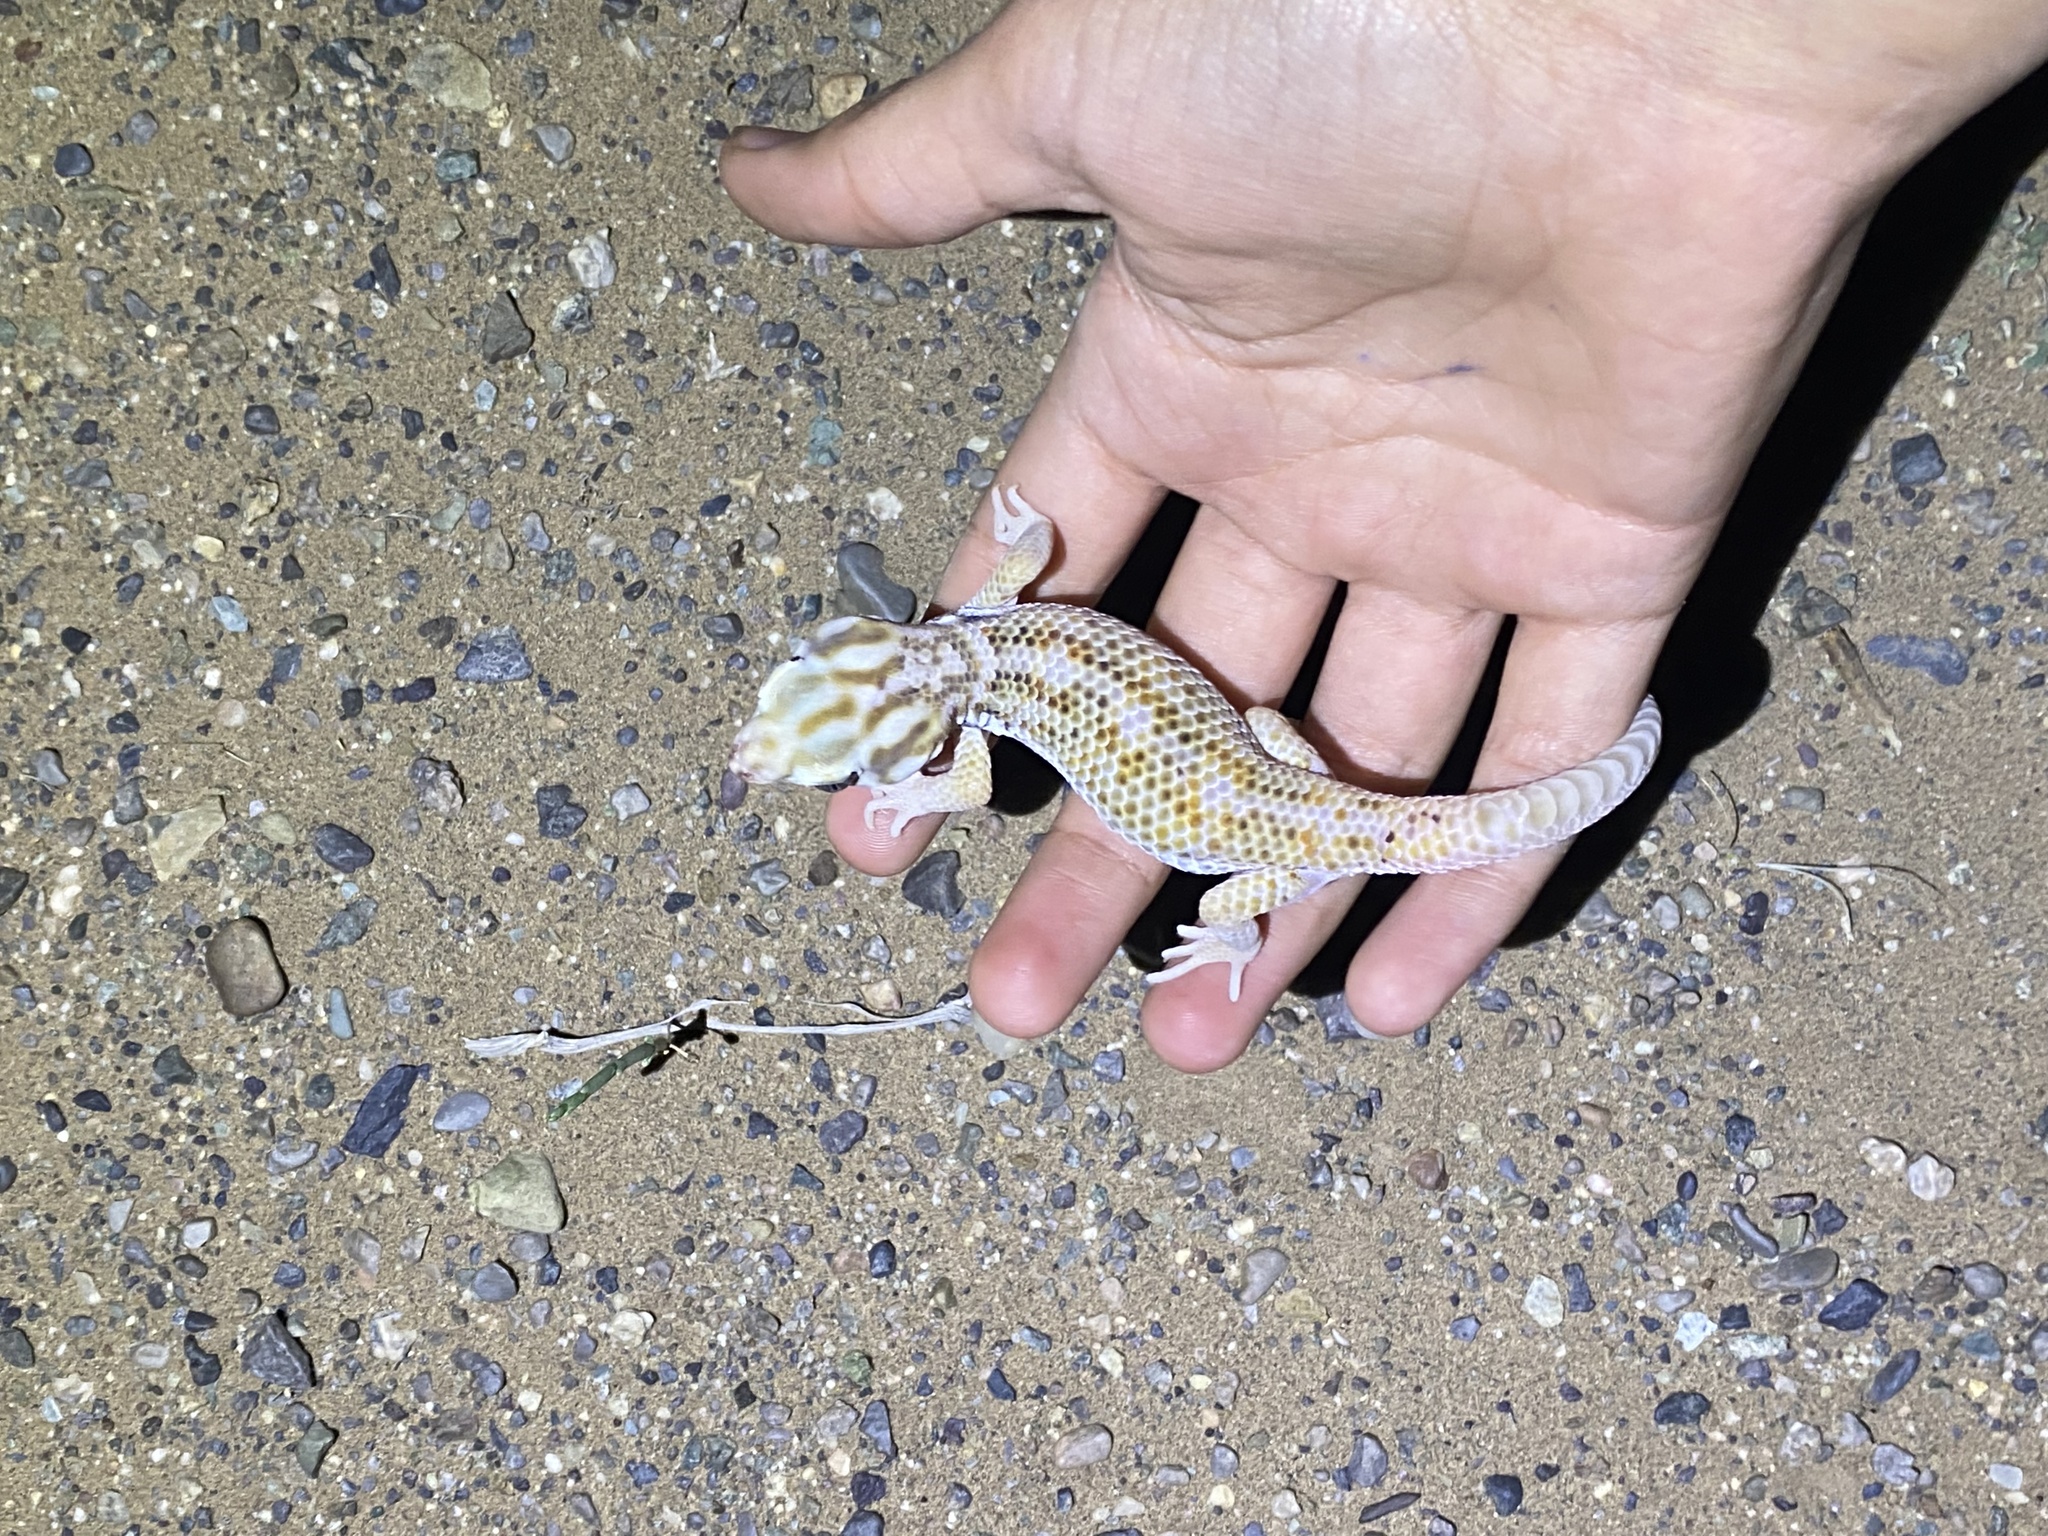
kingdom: Animalia
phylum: Chordata
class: Squamata
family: Sphaerodactylidae
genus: Teratoscincus
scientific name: Teratoscincus keyserlingii
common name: Frog-eyed gecko
